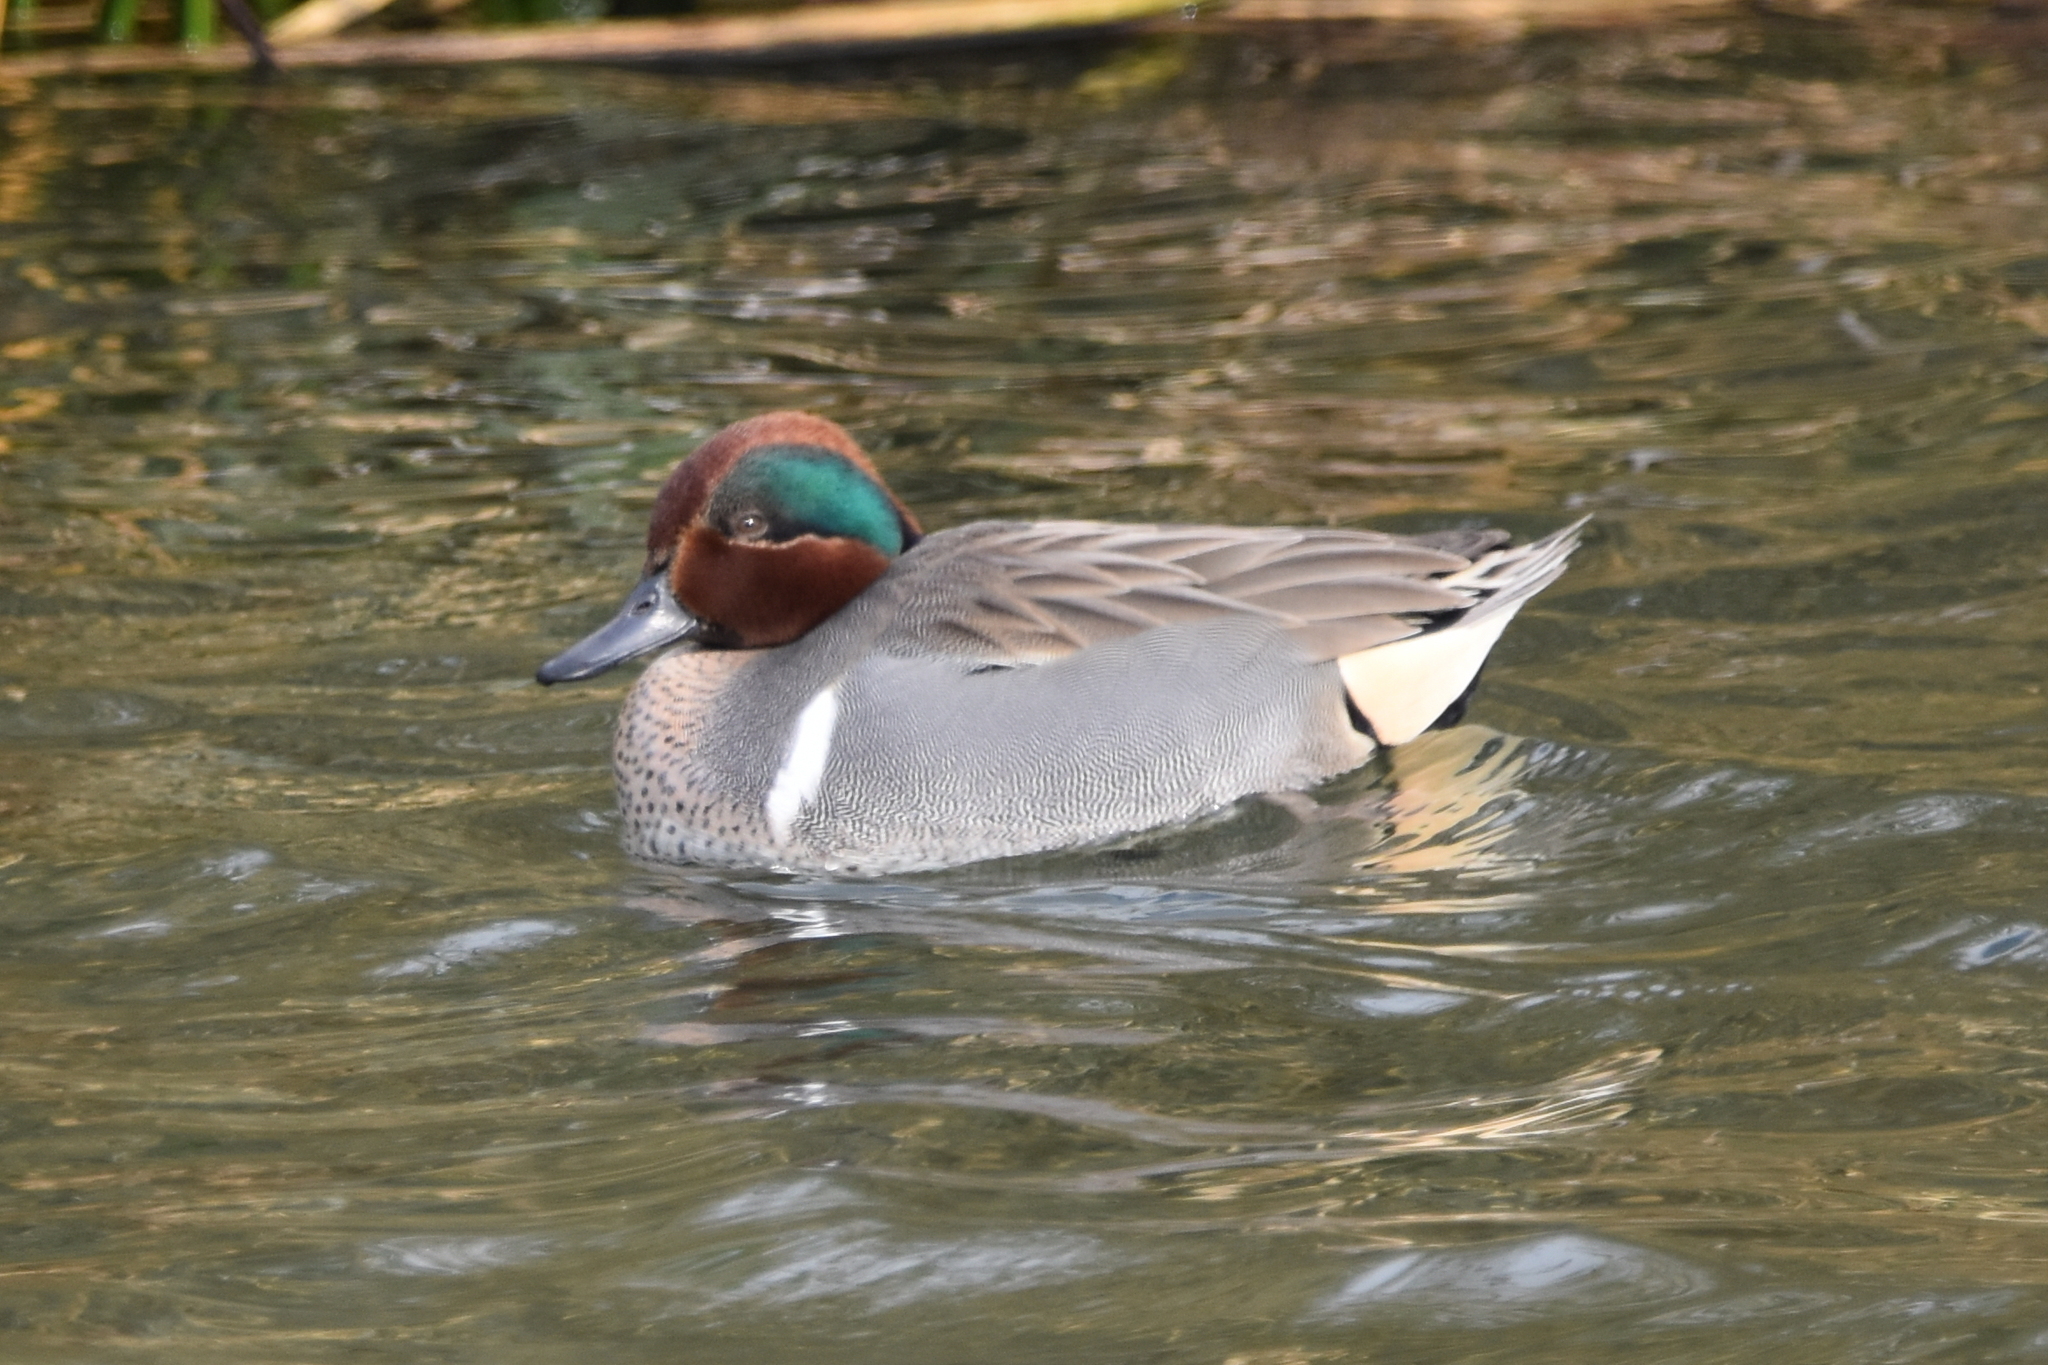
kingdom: Animalia
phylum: Chordata
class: Aves
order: Anseriformes
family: Anatidae
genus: Anas
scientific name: Anas crecca
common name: Eurasian teal
